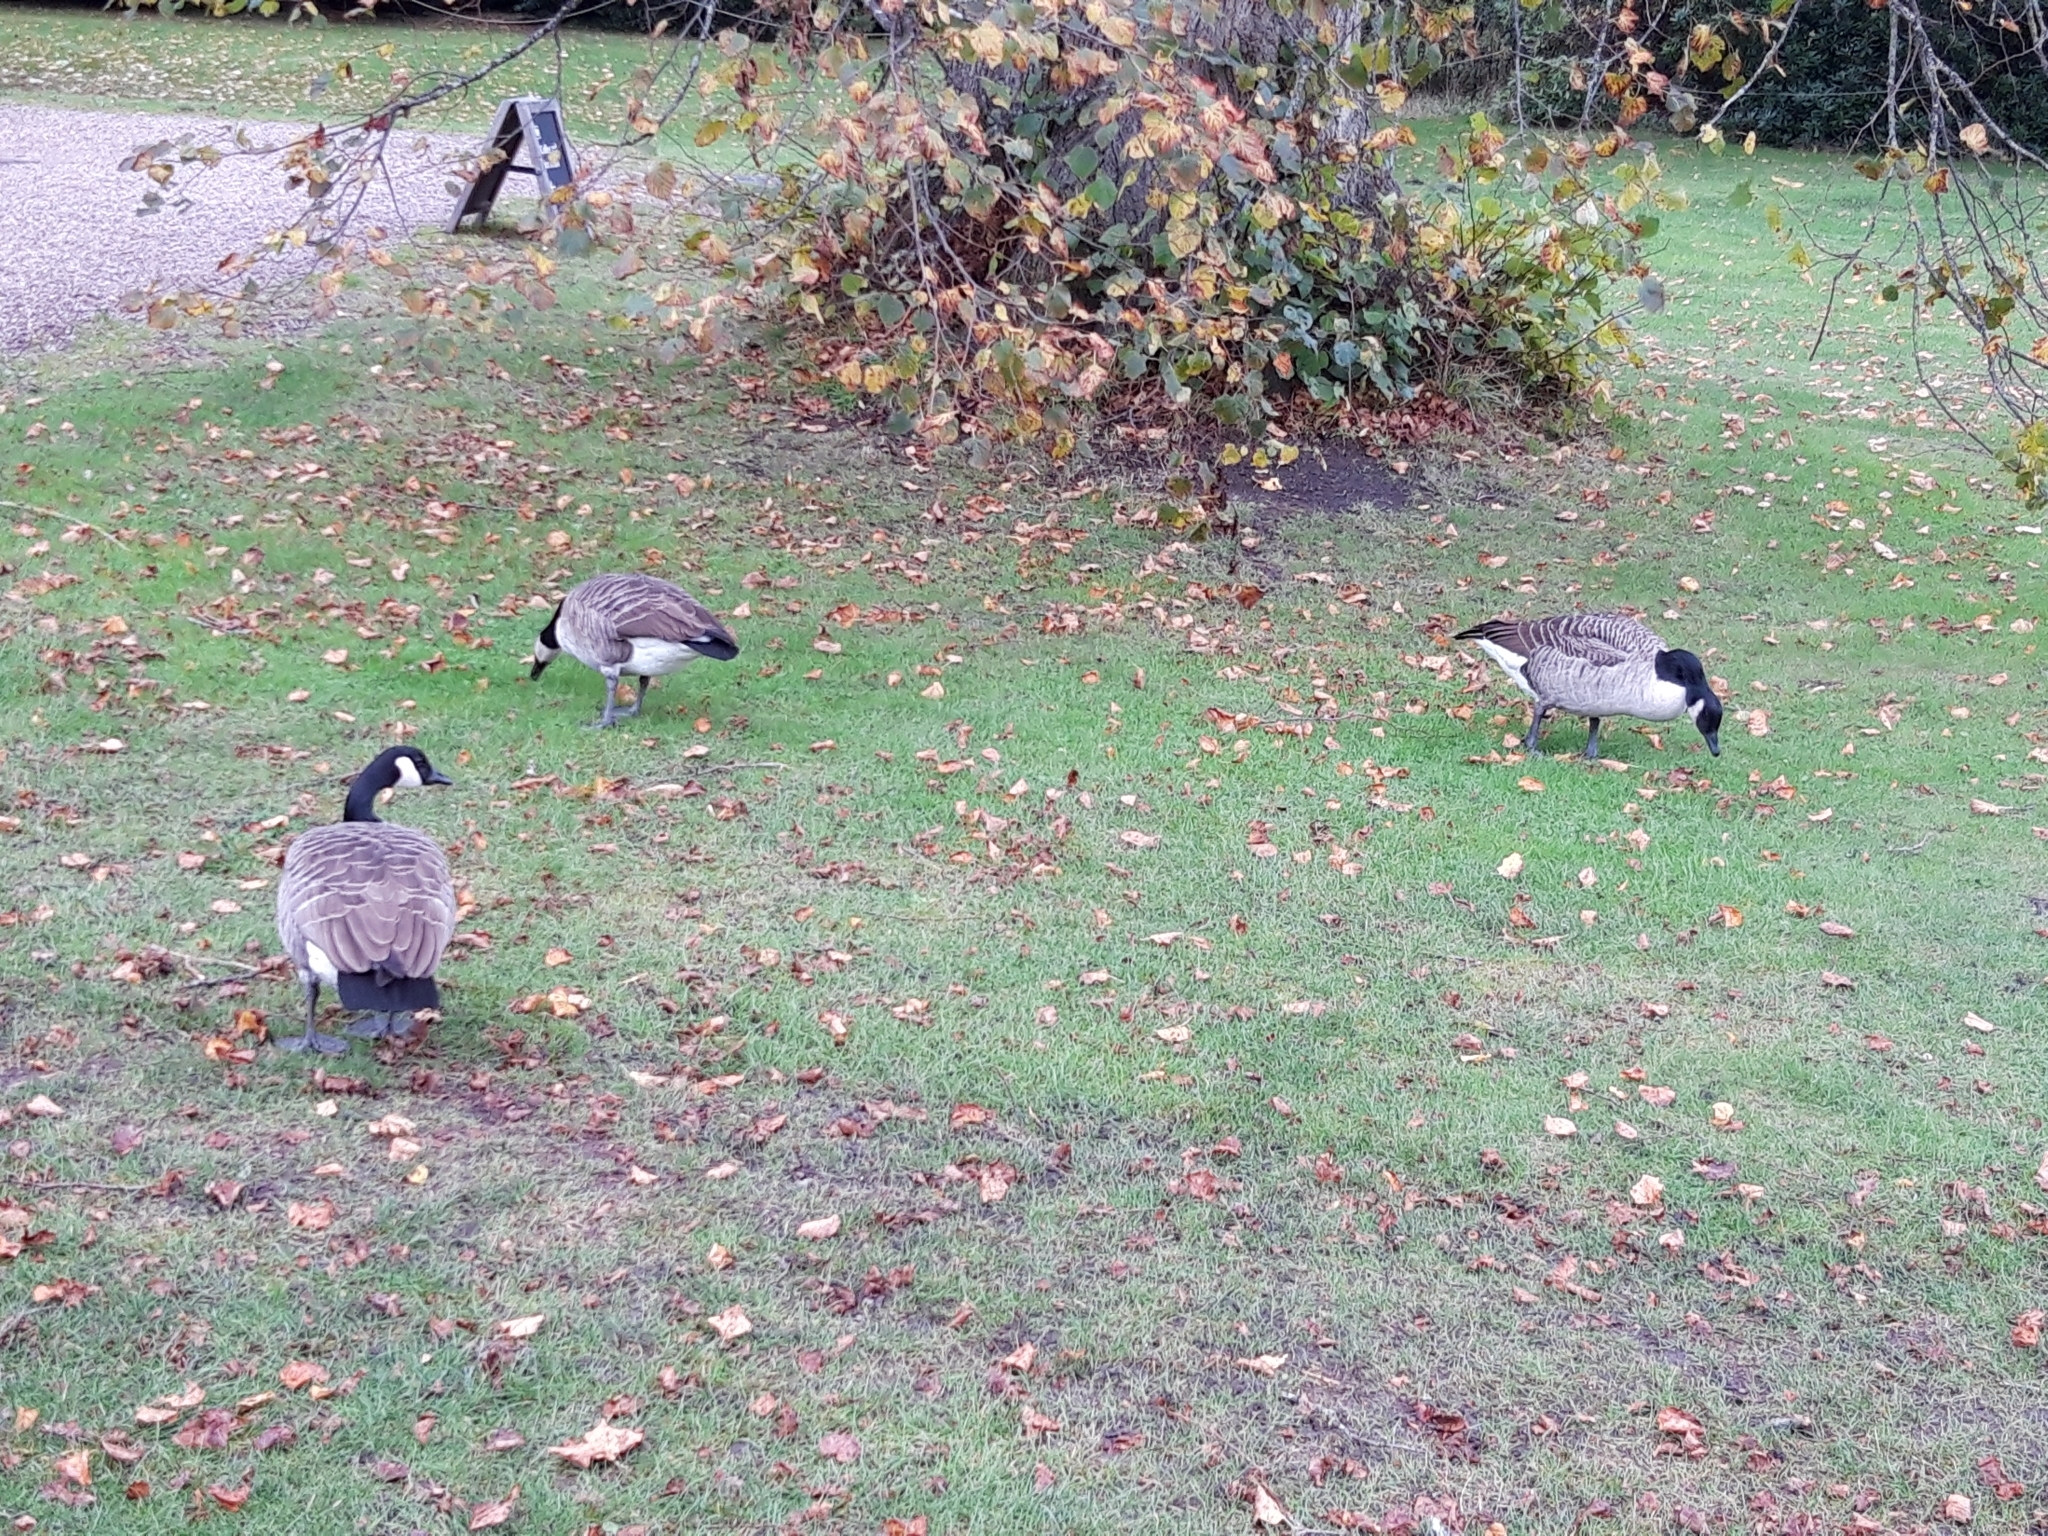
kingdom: Animalia
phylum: Chordata
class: Aves
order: Anseriformes
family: Anatidae
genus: Branta
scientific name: Branta canadensis
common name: Canada goose
